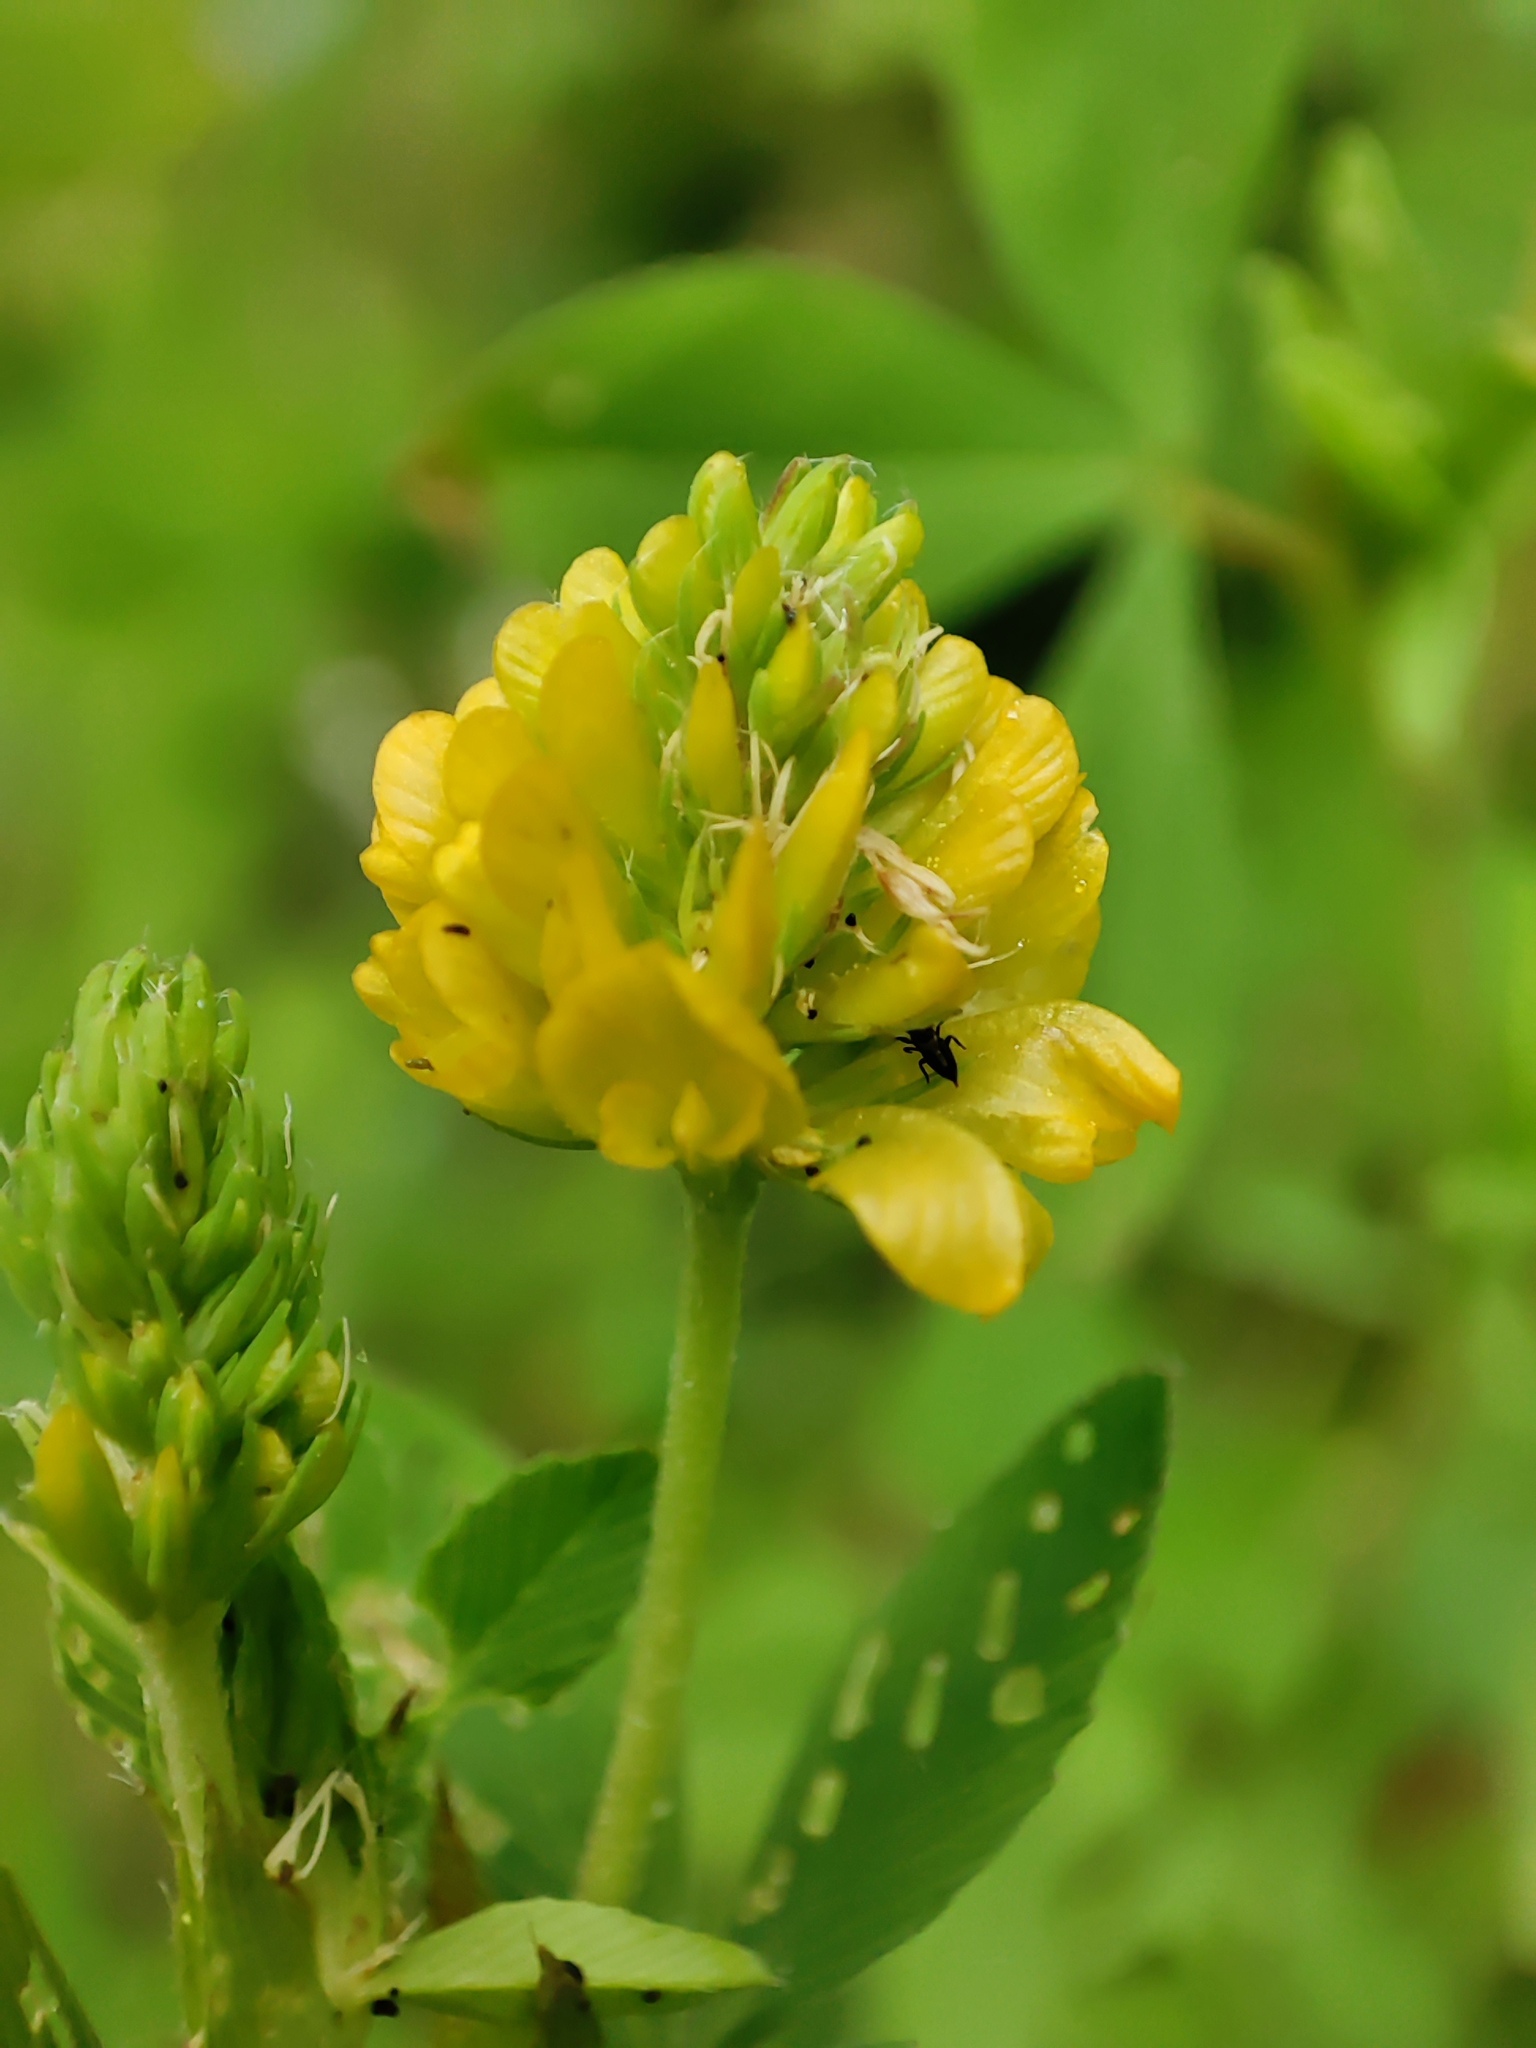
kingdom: Plantae
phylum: Tracheophyta
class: Magnoliopsida
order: Fabales
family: Fabaceae
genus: Trifolium
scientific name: Trifolium aureum
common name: Golden clover
